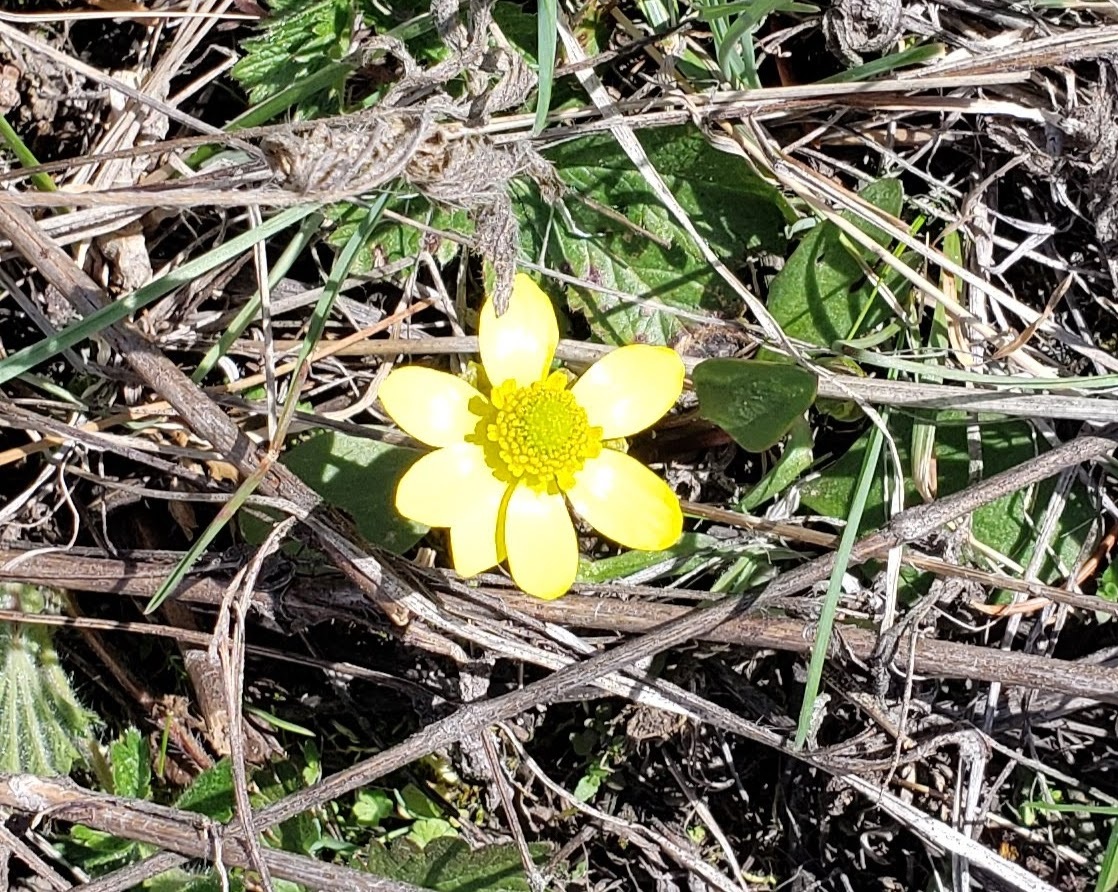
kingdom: Plantae
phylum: Tracheophyta
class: Magnoliopsida
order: Ranunculales
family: Ranunculaceae
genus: Ranunculus
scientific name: Ranunculus glaberrimus
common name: Sagebrush buttercup
